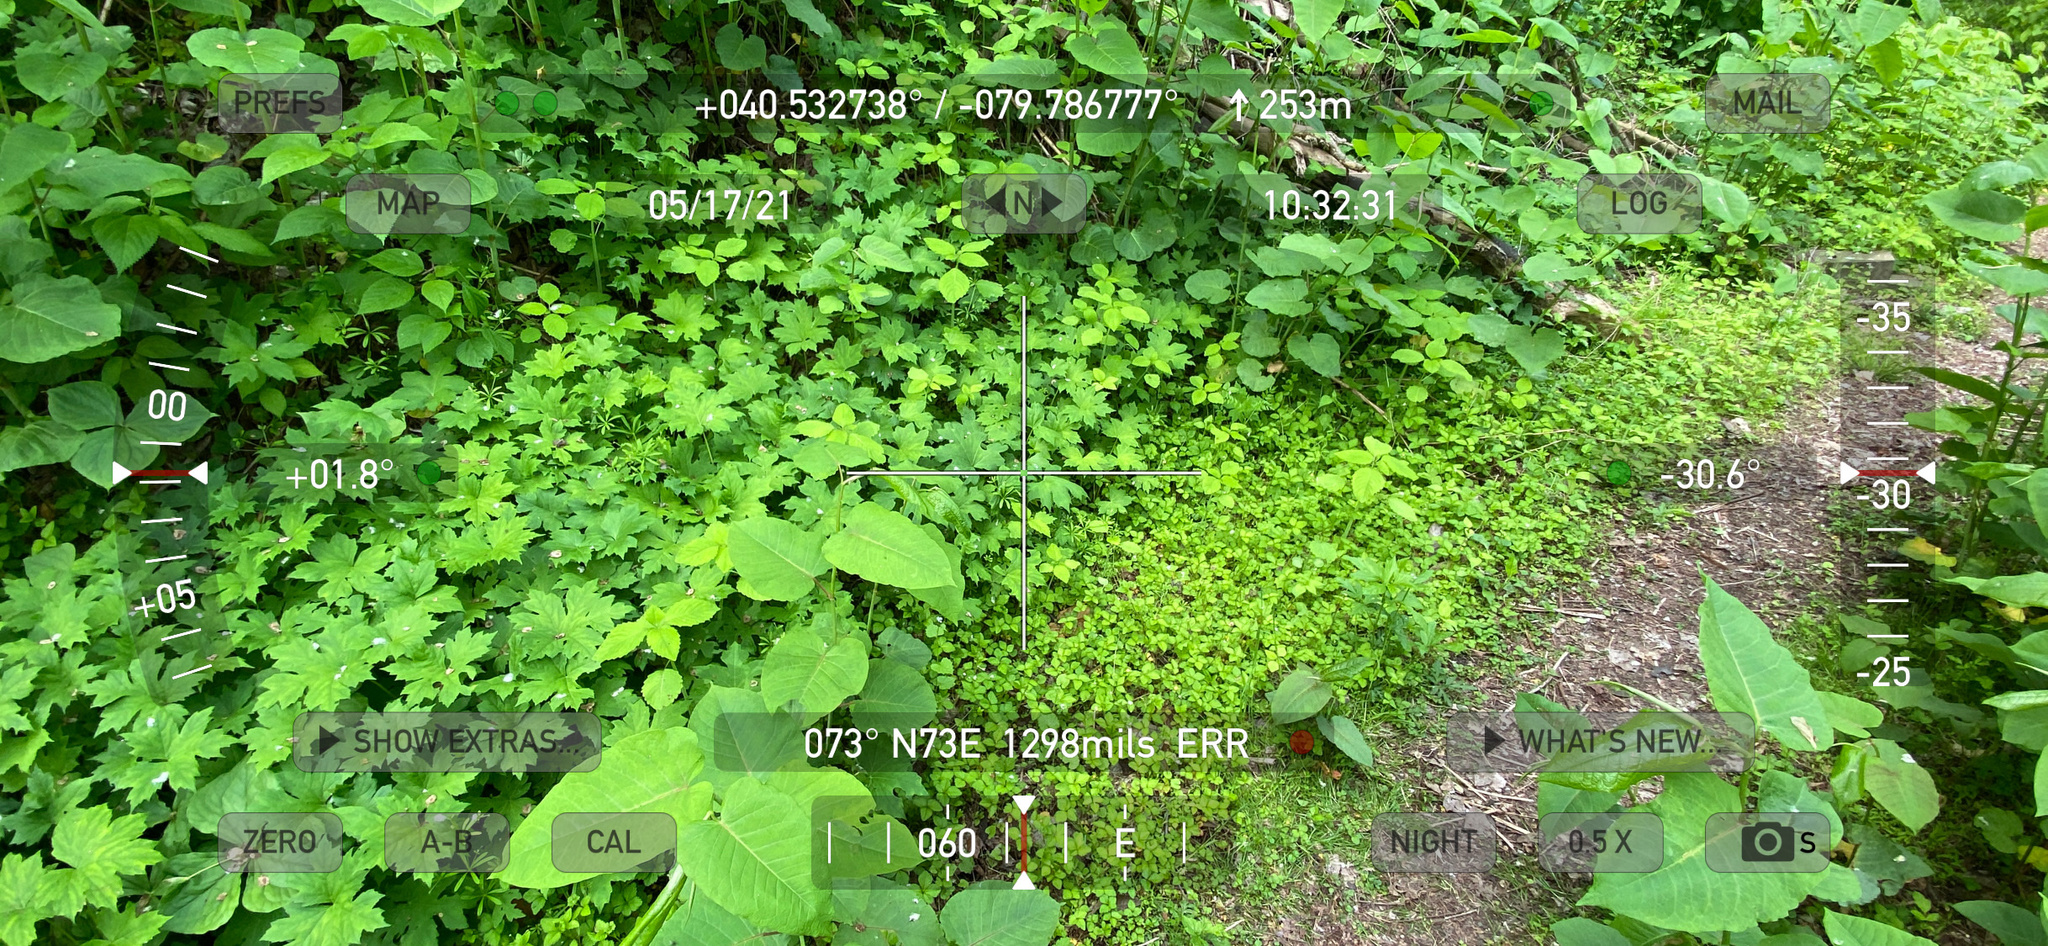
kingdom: Plantae
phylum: Tracheophyta
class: Magnoliopsida
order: Rosales
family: Rosaceae
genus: Potentilla
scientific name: Potentilla indica
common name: Yellow-flowered strawberry
